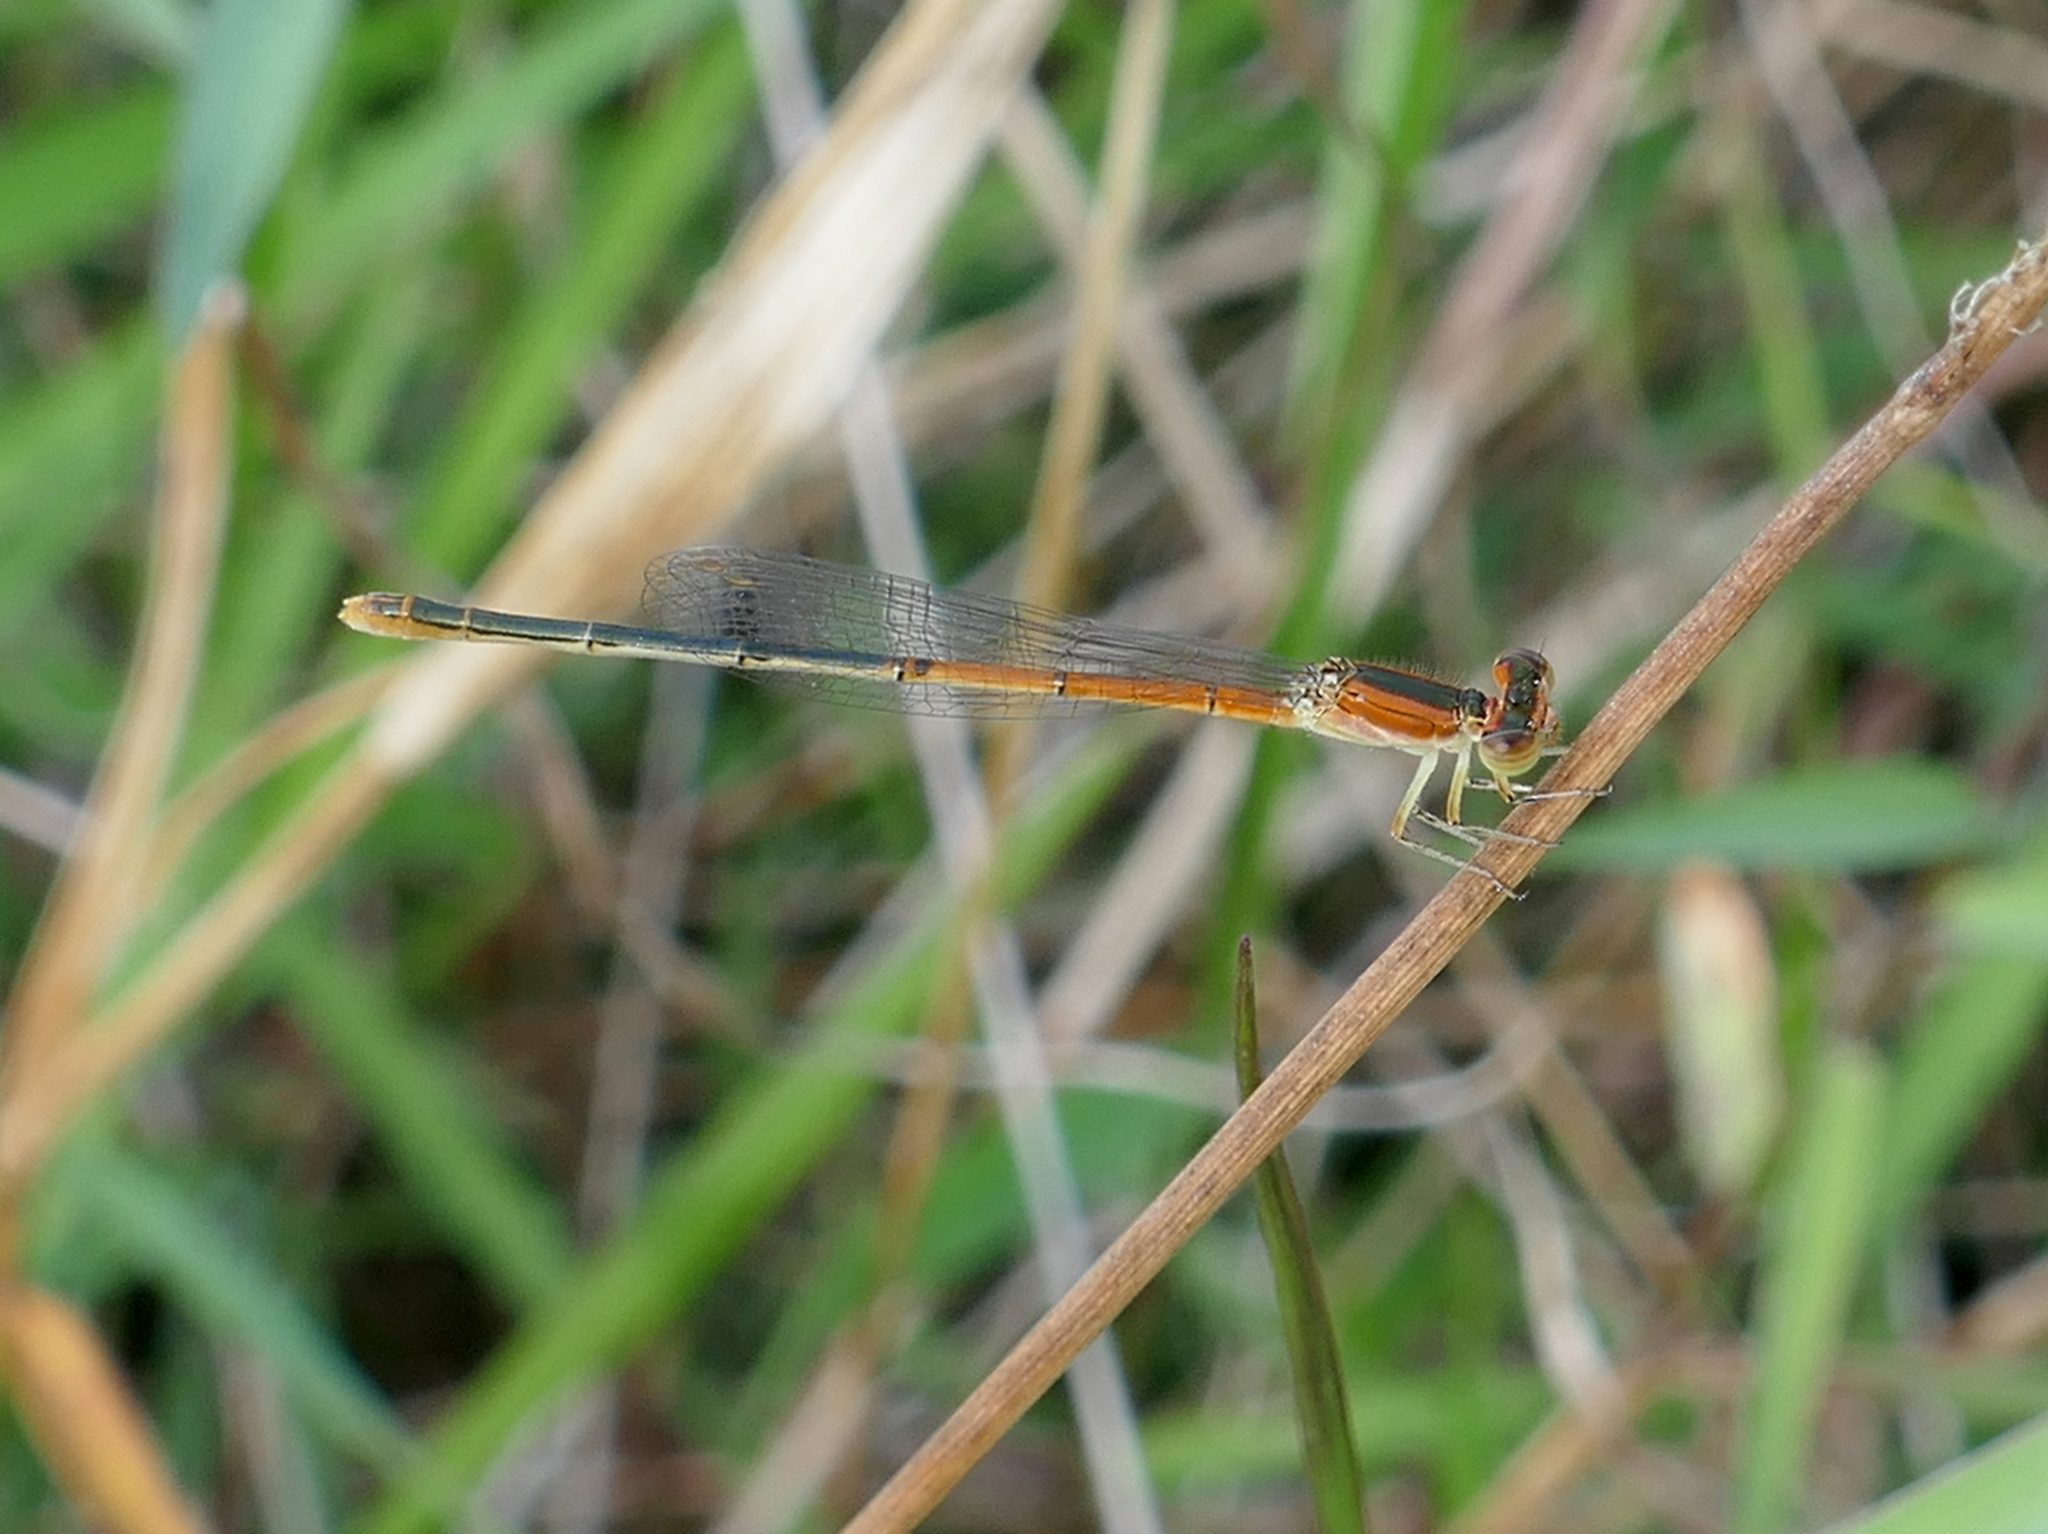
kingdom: Animalia
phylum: Arthropoda
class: Insecta
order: Odonata
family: Coenagrionidae
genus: Ischnura
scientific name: Ischnura hastata
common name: Citrine forktail
